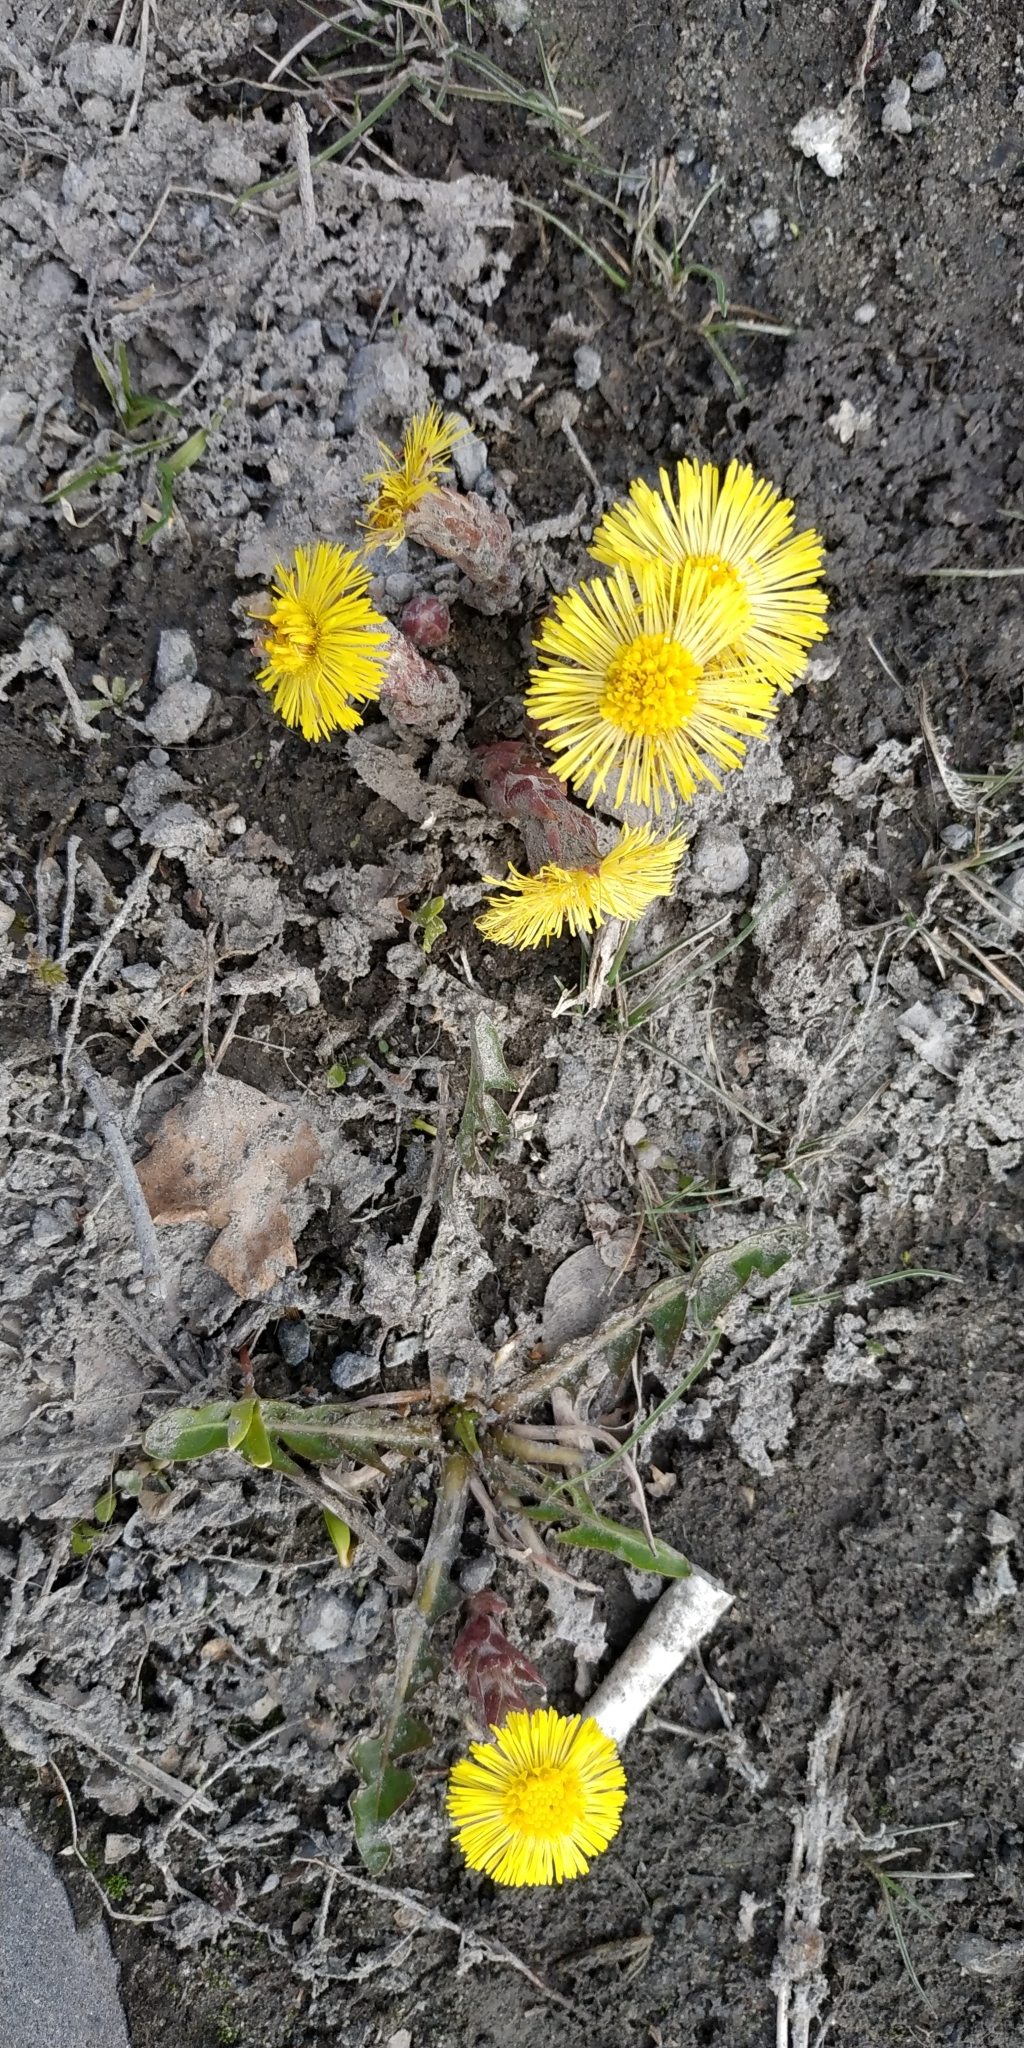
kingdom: Plantae
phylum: Tracheophyta
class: Magnoliopsida
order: Asterales
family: Asteraceae
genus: Tussilago
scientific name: Tussilago farfara
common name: Coltsfoot
